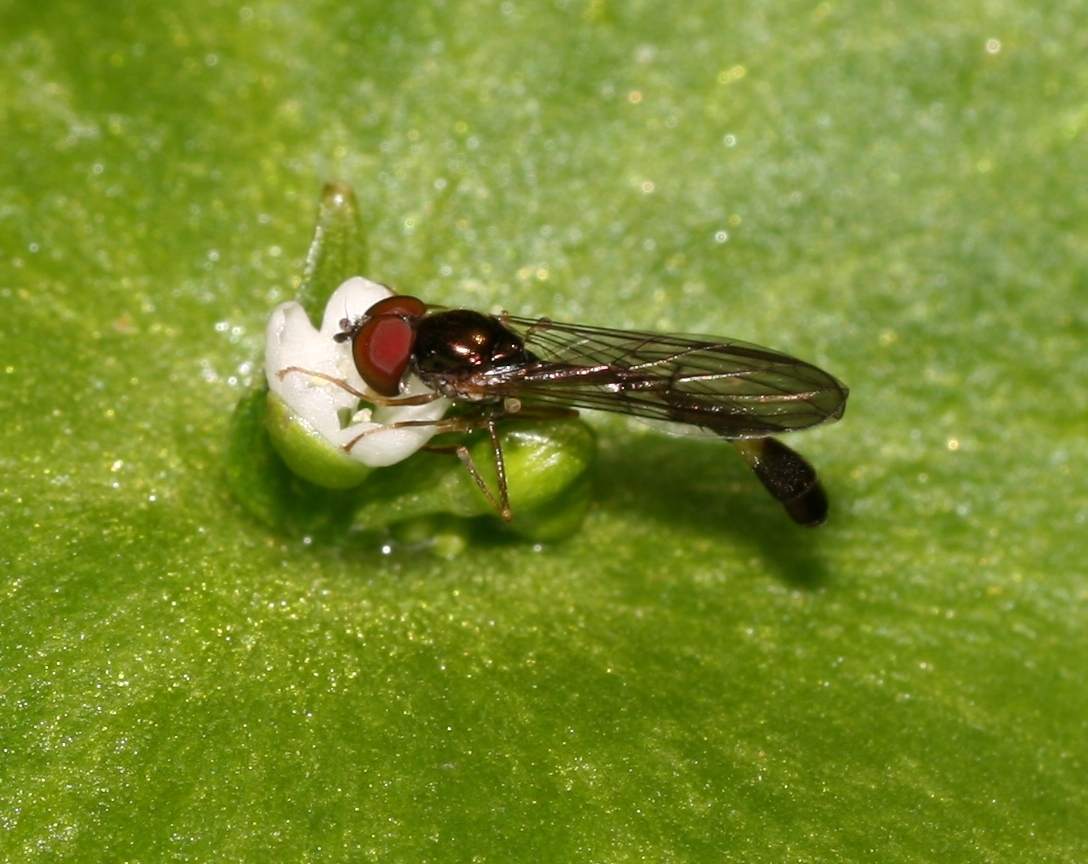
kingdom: Animalia
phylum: Arthropoda
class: Insecta
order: Diptera
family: Syrphidae
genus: Baccha
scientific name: Baccha elongata
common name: Common dainty
